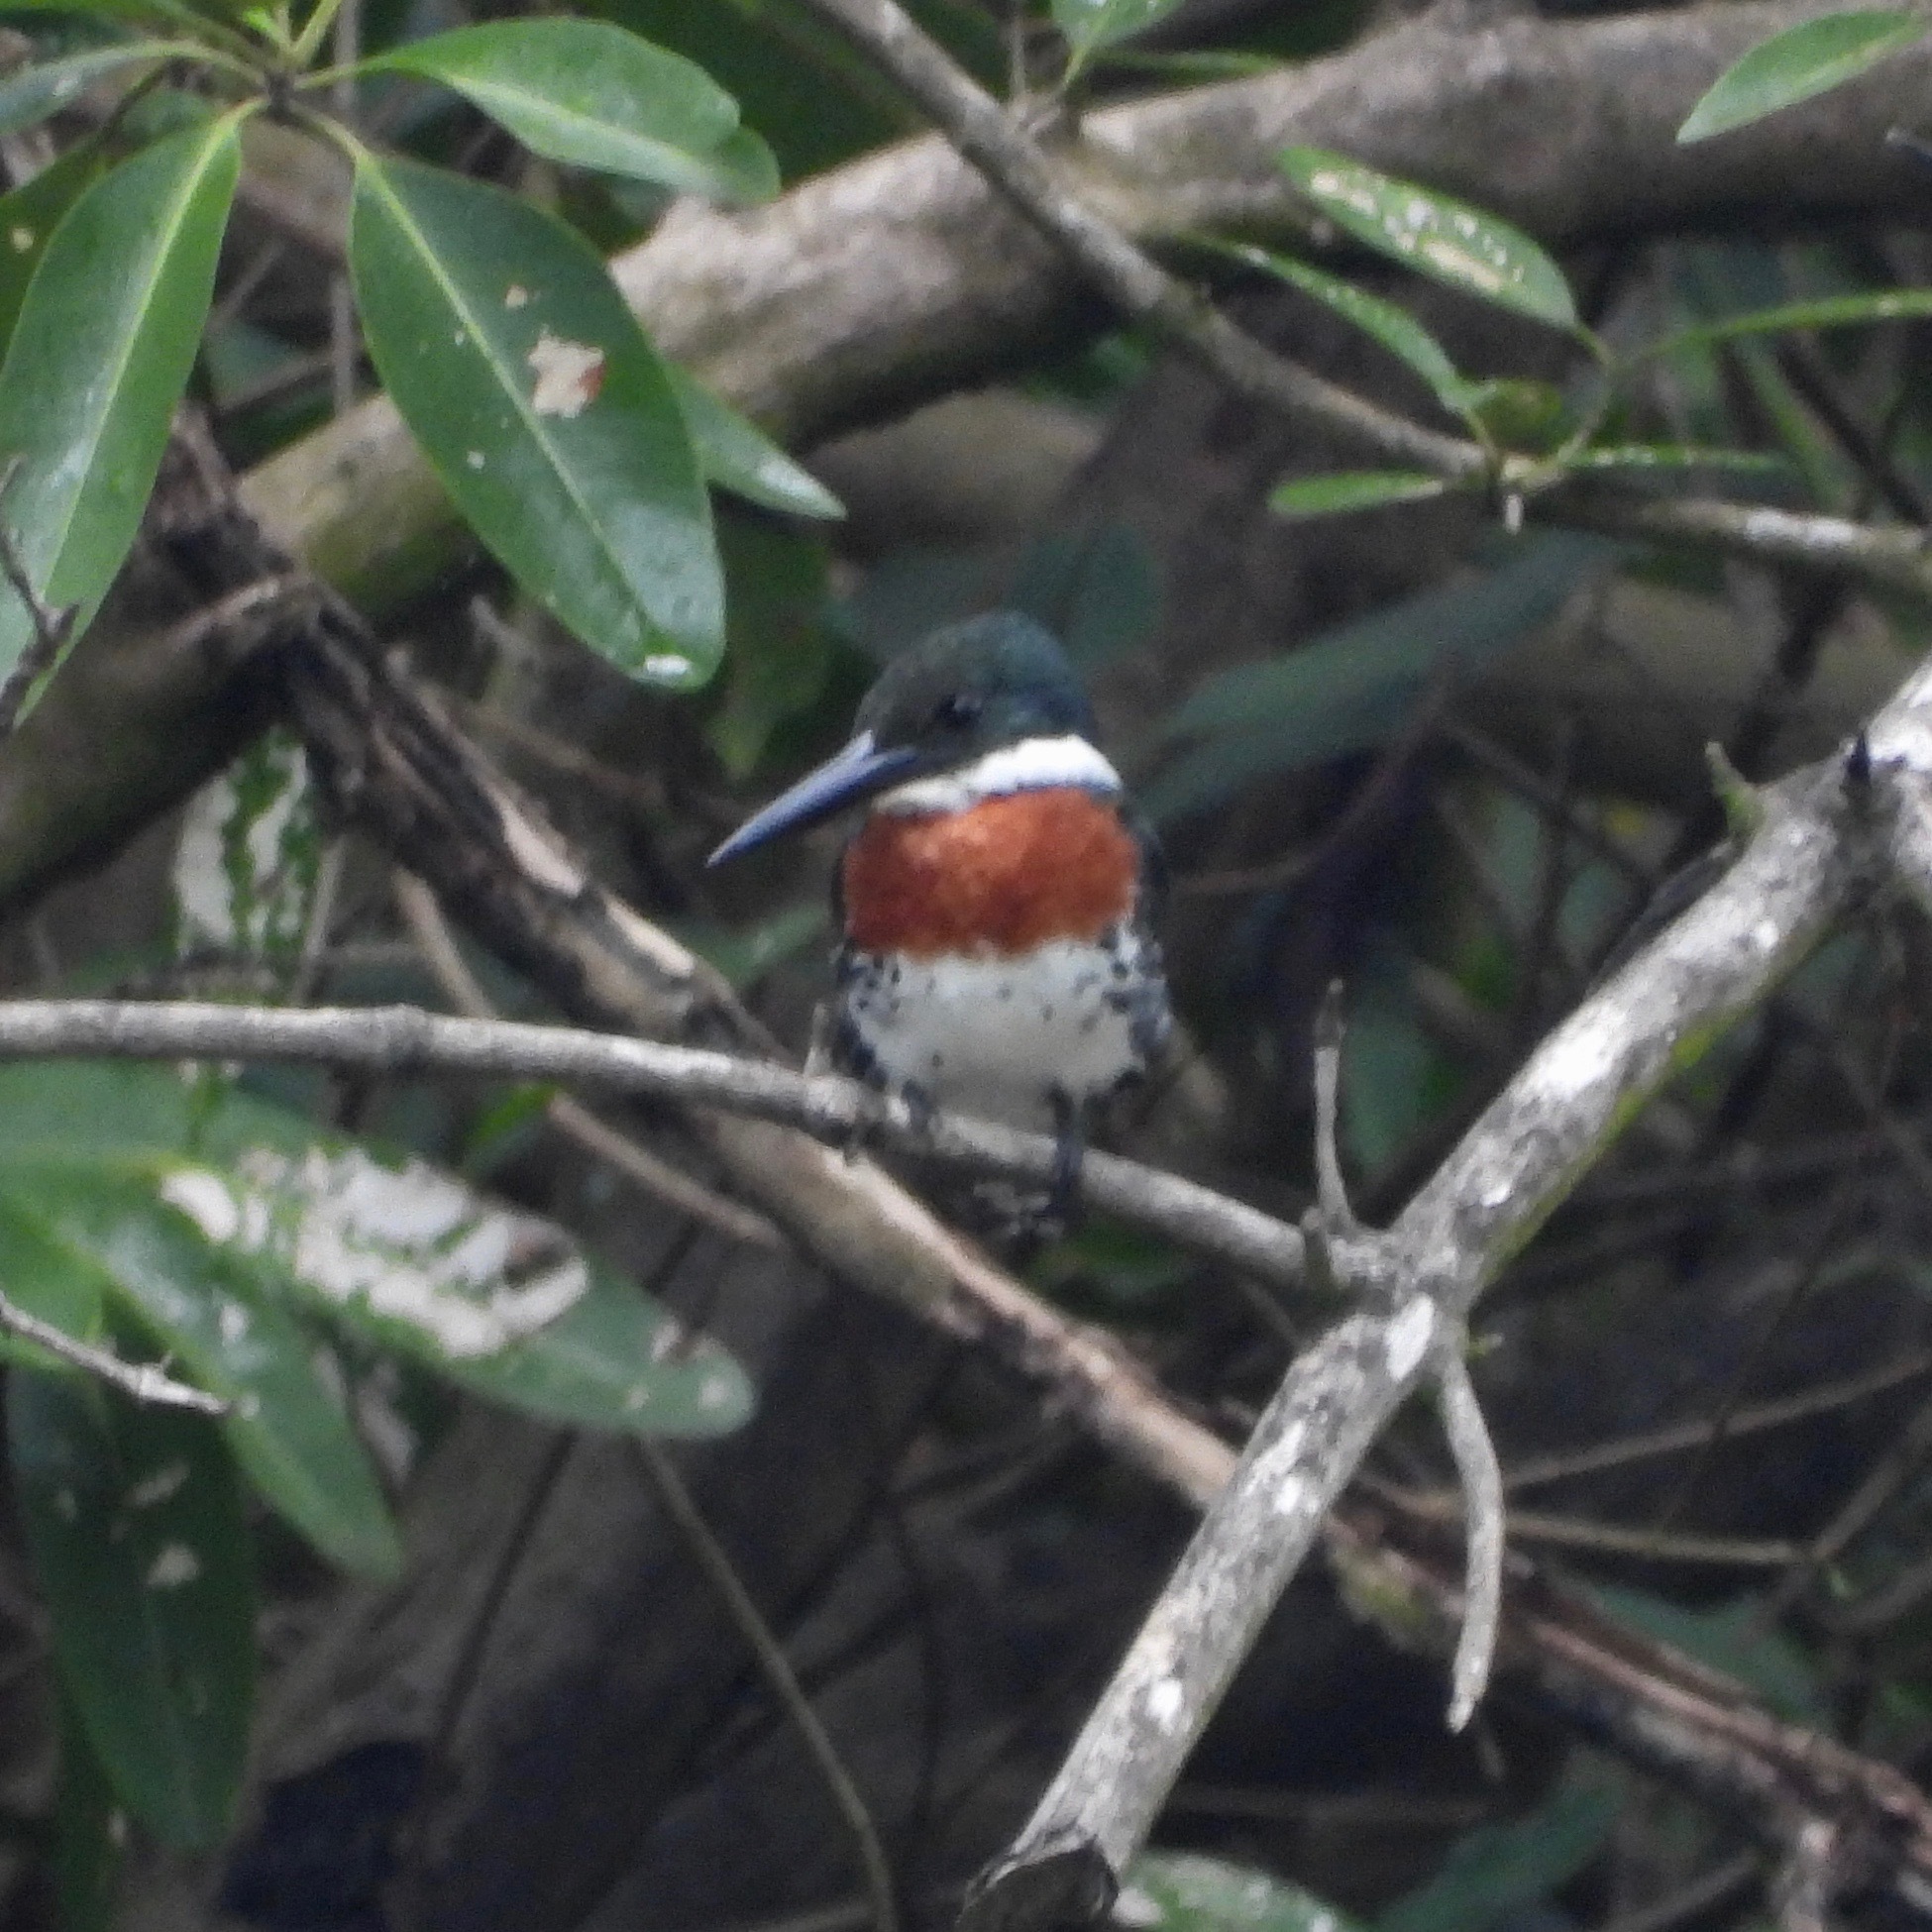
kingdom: Animalia
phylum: Chordata
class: Aves
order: Coraciiformes
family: Alcedinidae
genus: Chloroceryle
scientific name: Chloroceryle americana
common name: Green kingfisher
